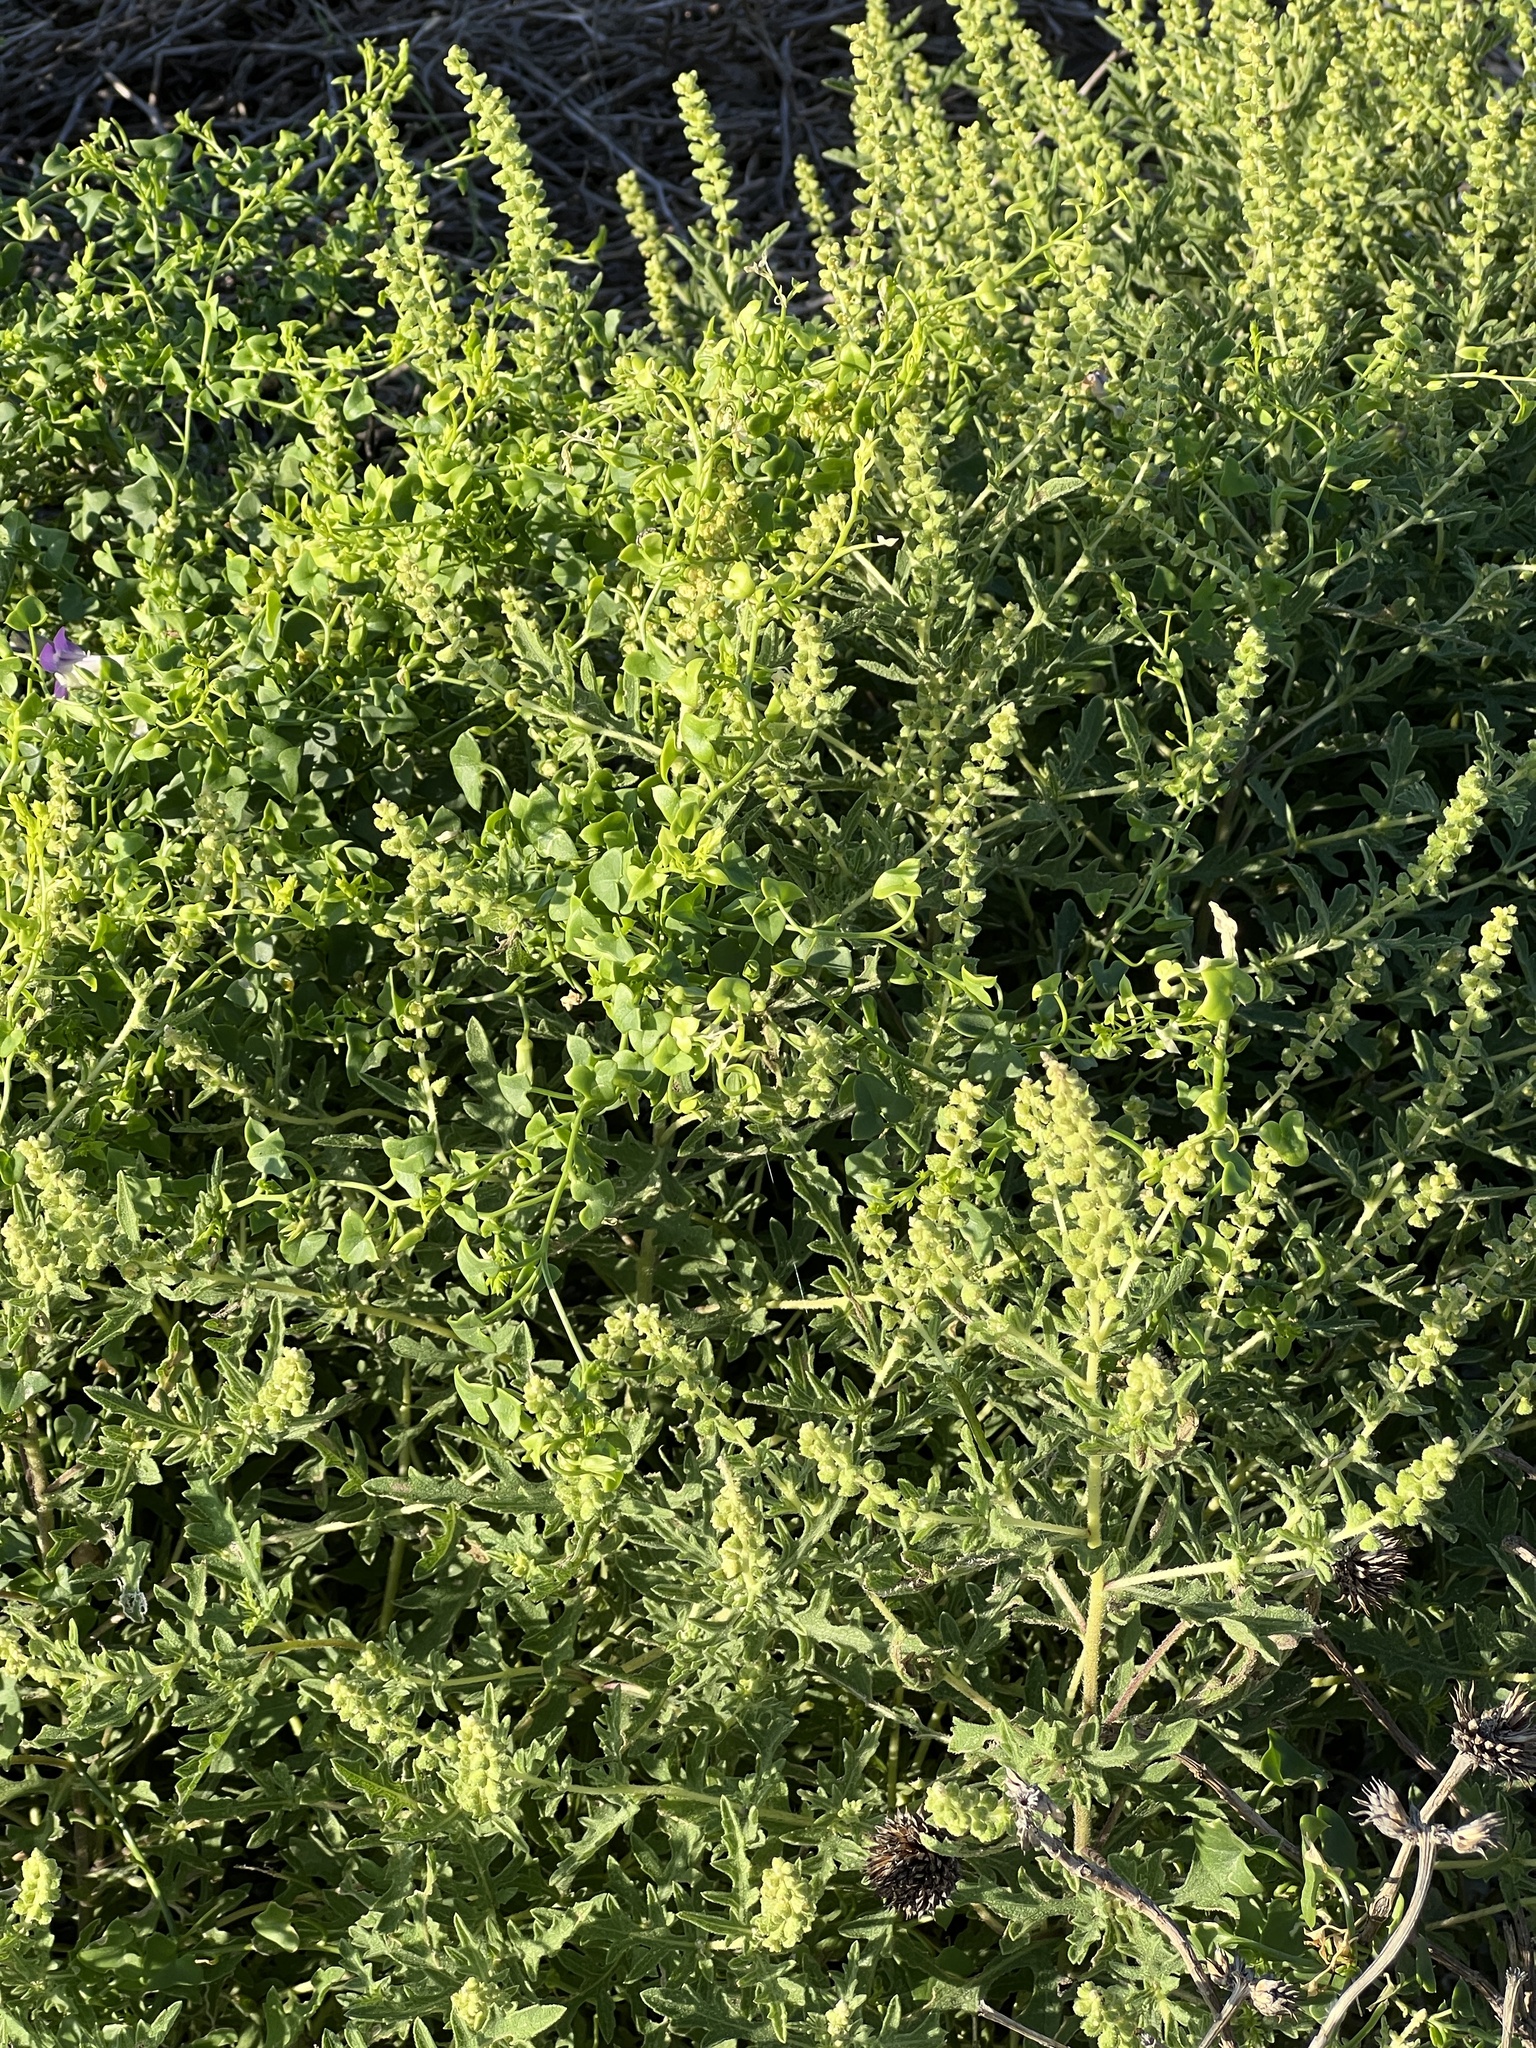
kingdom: Plantae
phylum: Tracheophyta
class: Magnoliopsida
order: Asterales
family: Asteraceae
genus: Ambrosia
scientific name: Ambrosia psilostachya
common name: Perennial ragweed
